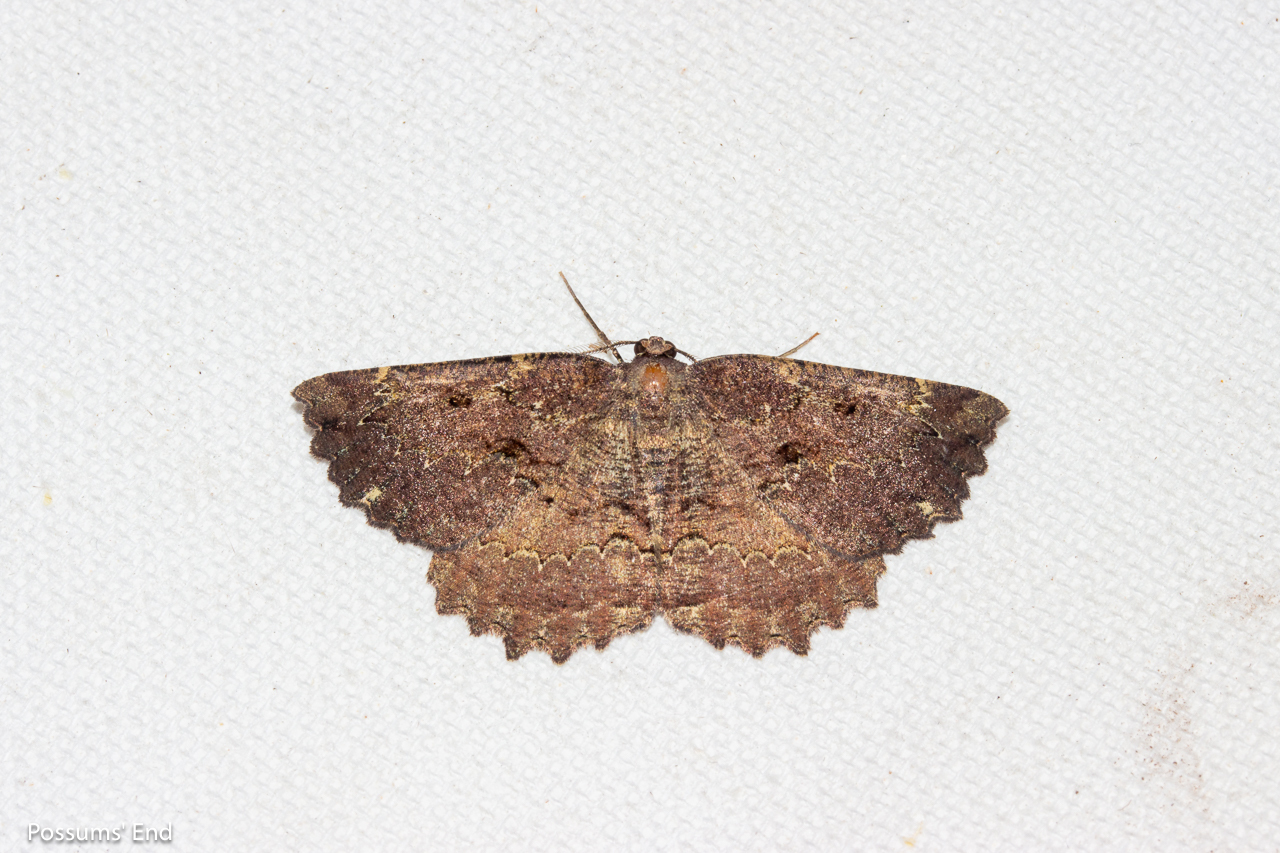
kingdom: Animalia
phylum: Arthropoda
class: Insecta
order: Lepidoptera
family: Geometridae
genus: Gellonia
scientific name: Gellonia pannularia
